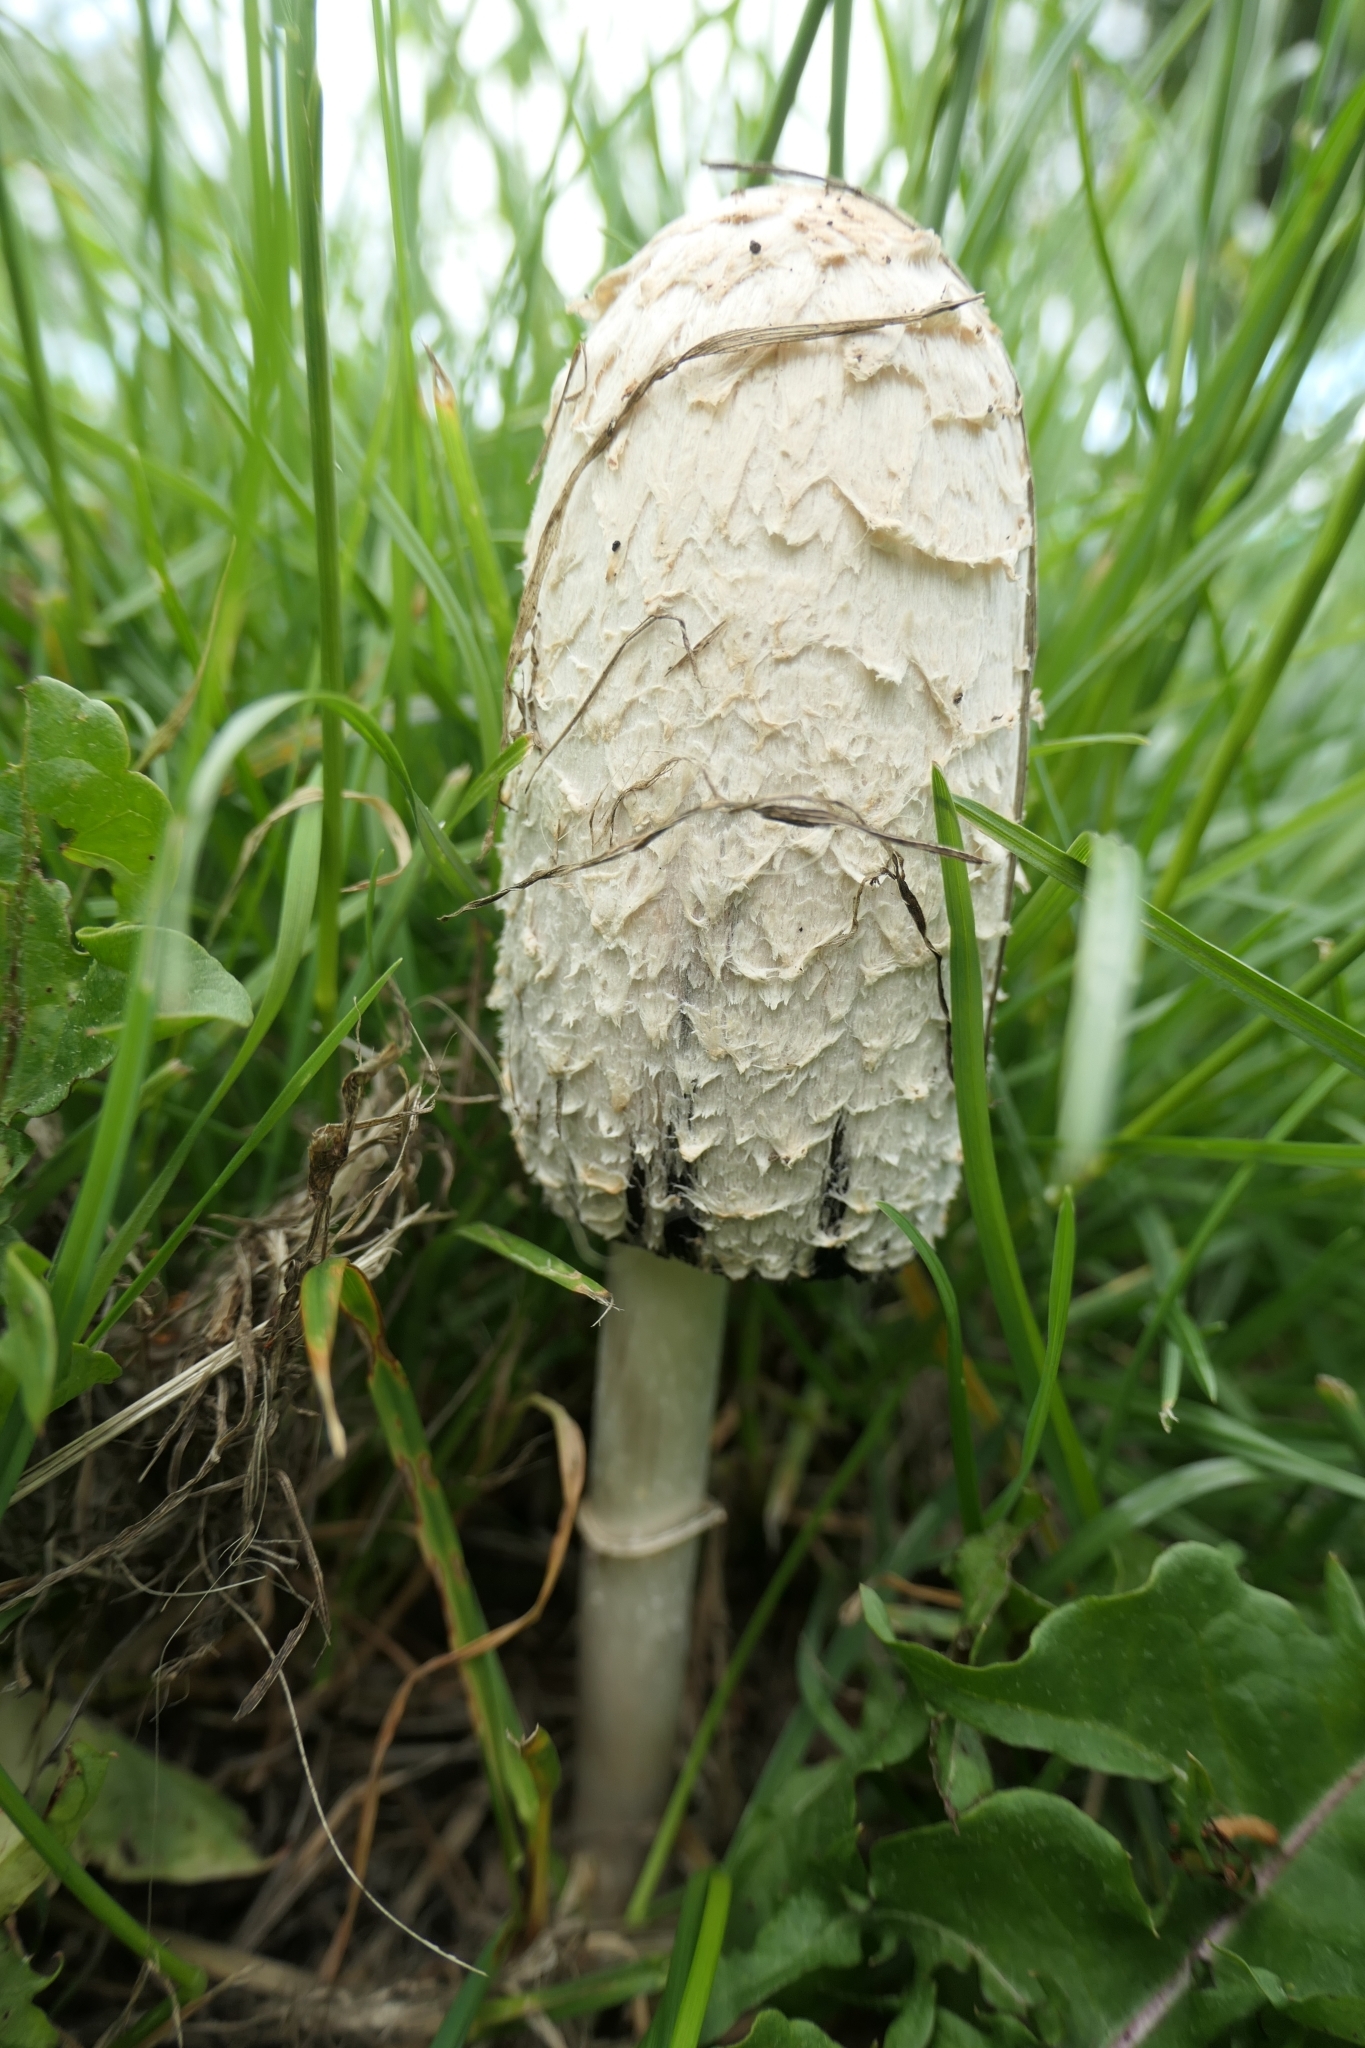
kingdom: Fungi
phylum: Basidiomycota
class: Agaricomycetes
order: Agaricales
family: Agaricaceae
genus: Coprinus
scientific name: Coprinus comatus
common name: Lawyer's wig
